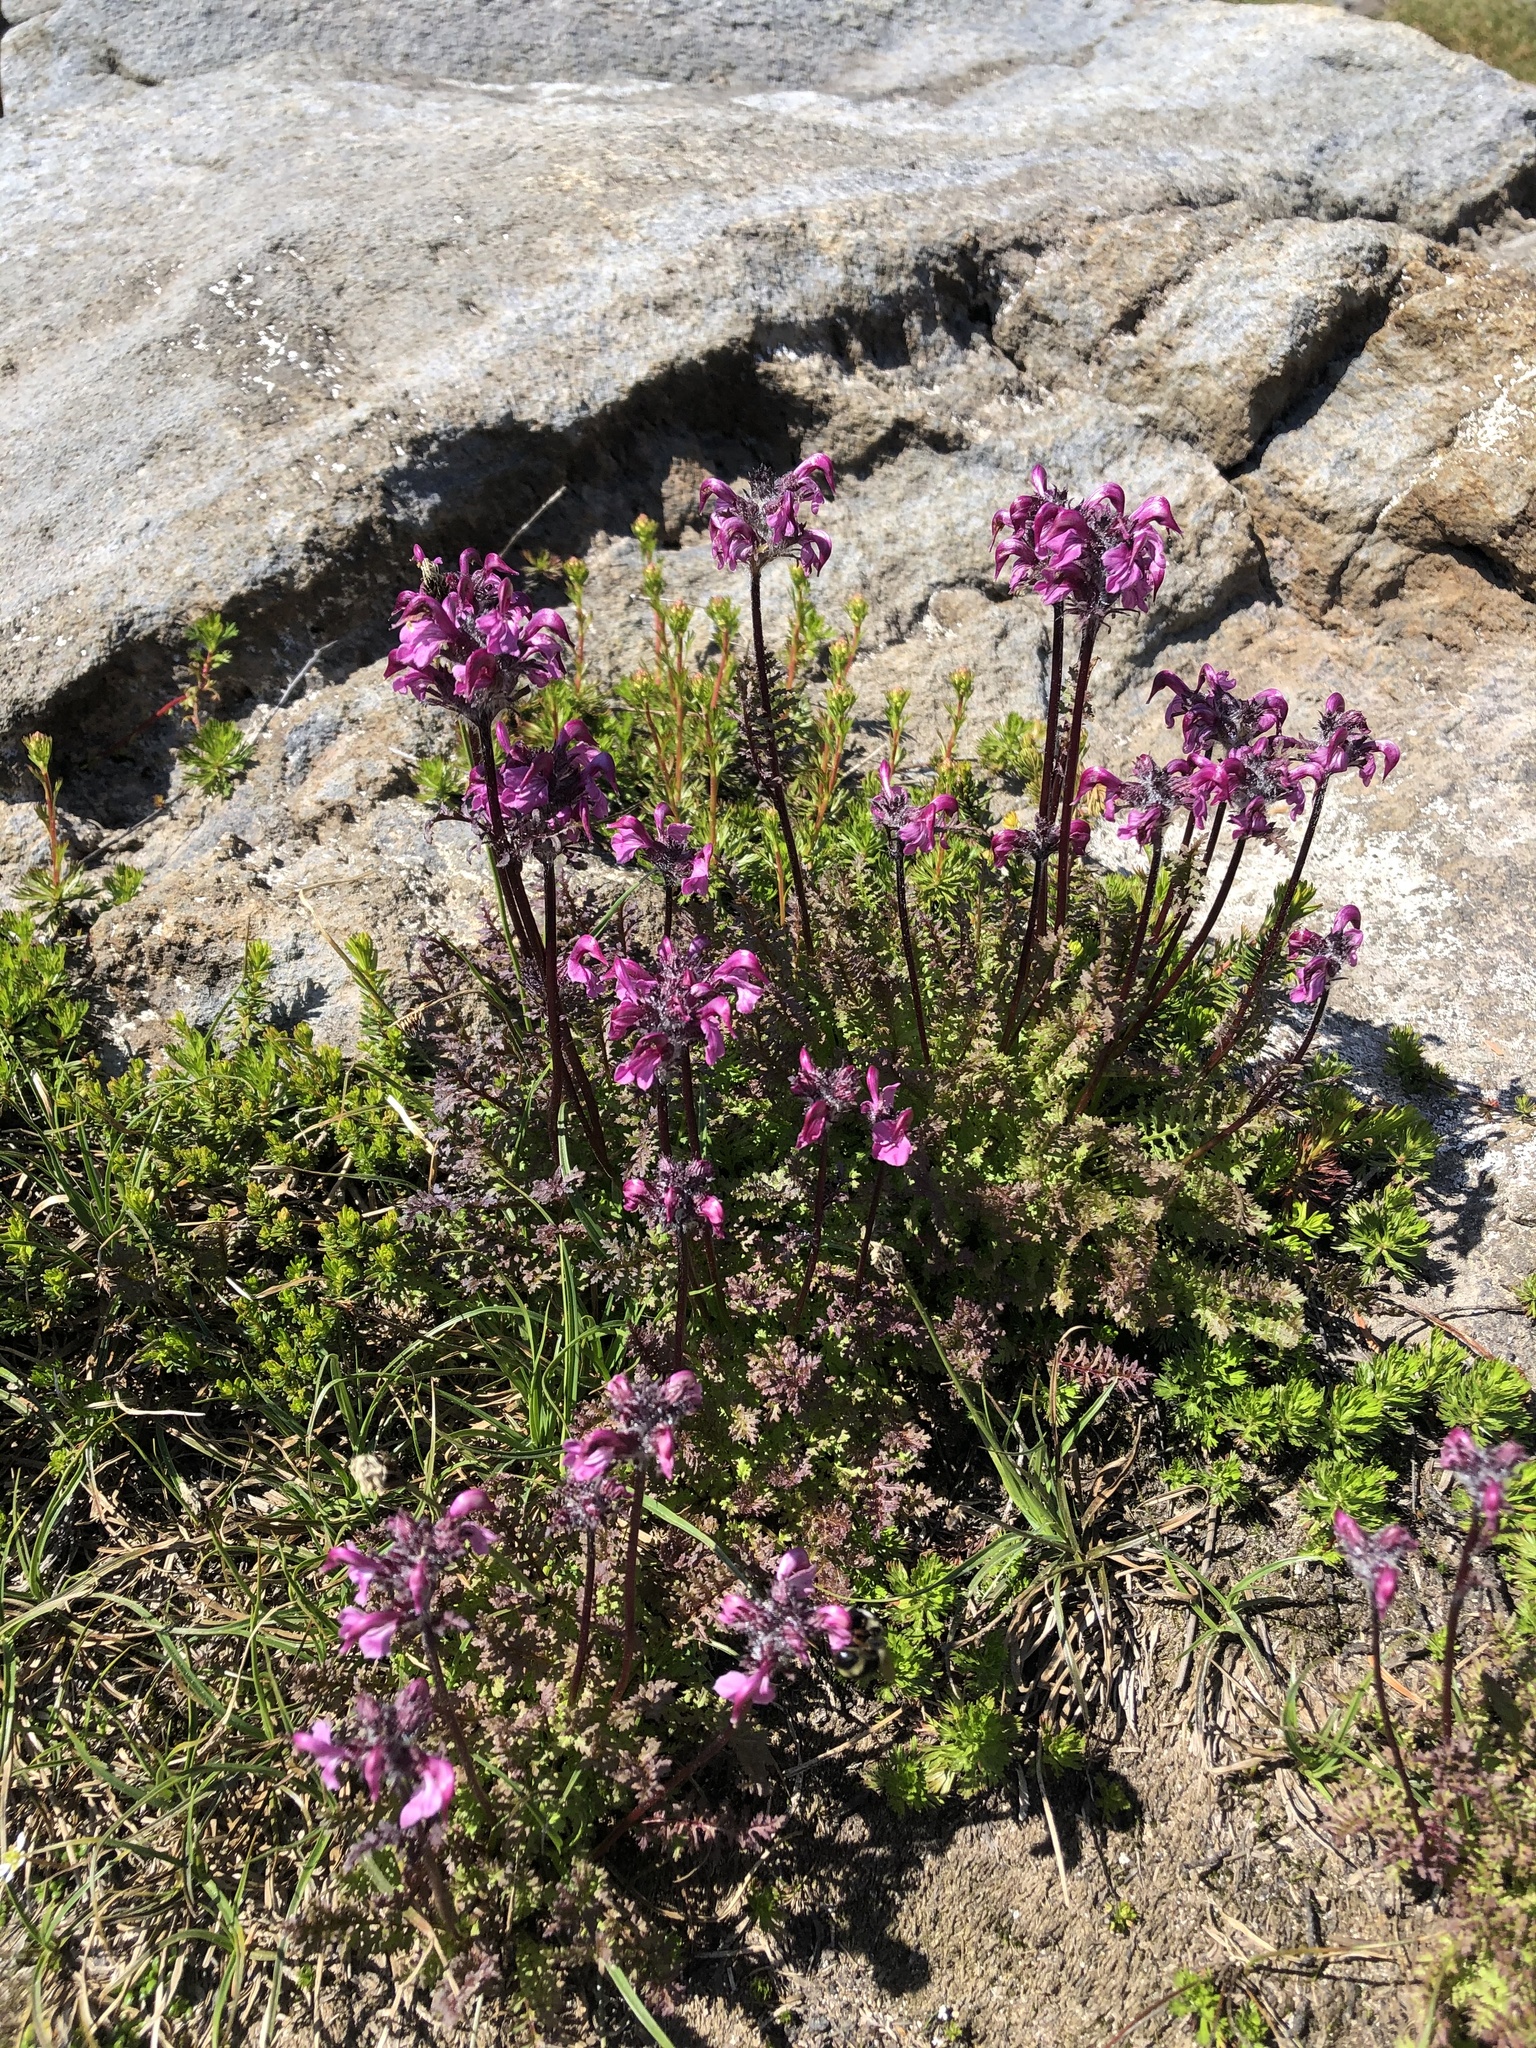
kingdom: Plantae
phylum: Tracheophyta
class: Magnoliopsida
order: Lamiales
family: Orobanchaceae
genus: Pedicularis
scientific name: Pedicularis ornithorhynchos
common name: Bird's-beak lousewort
